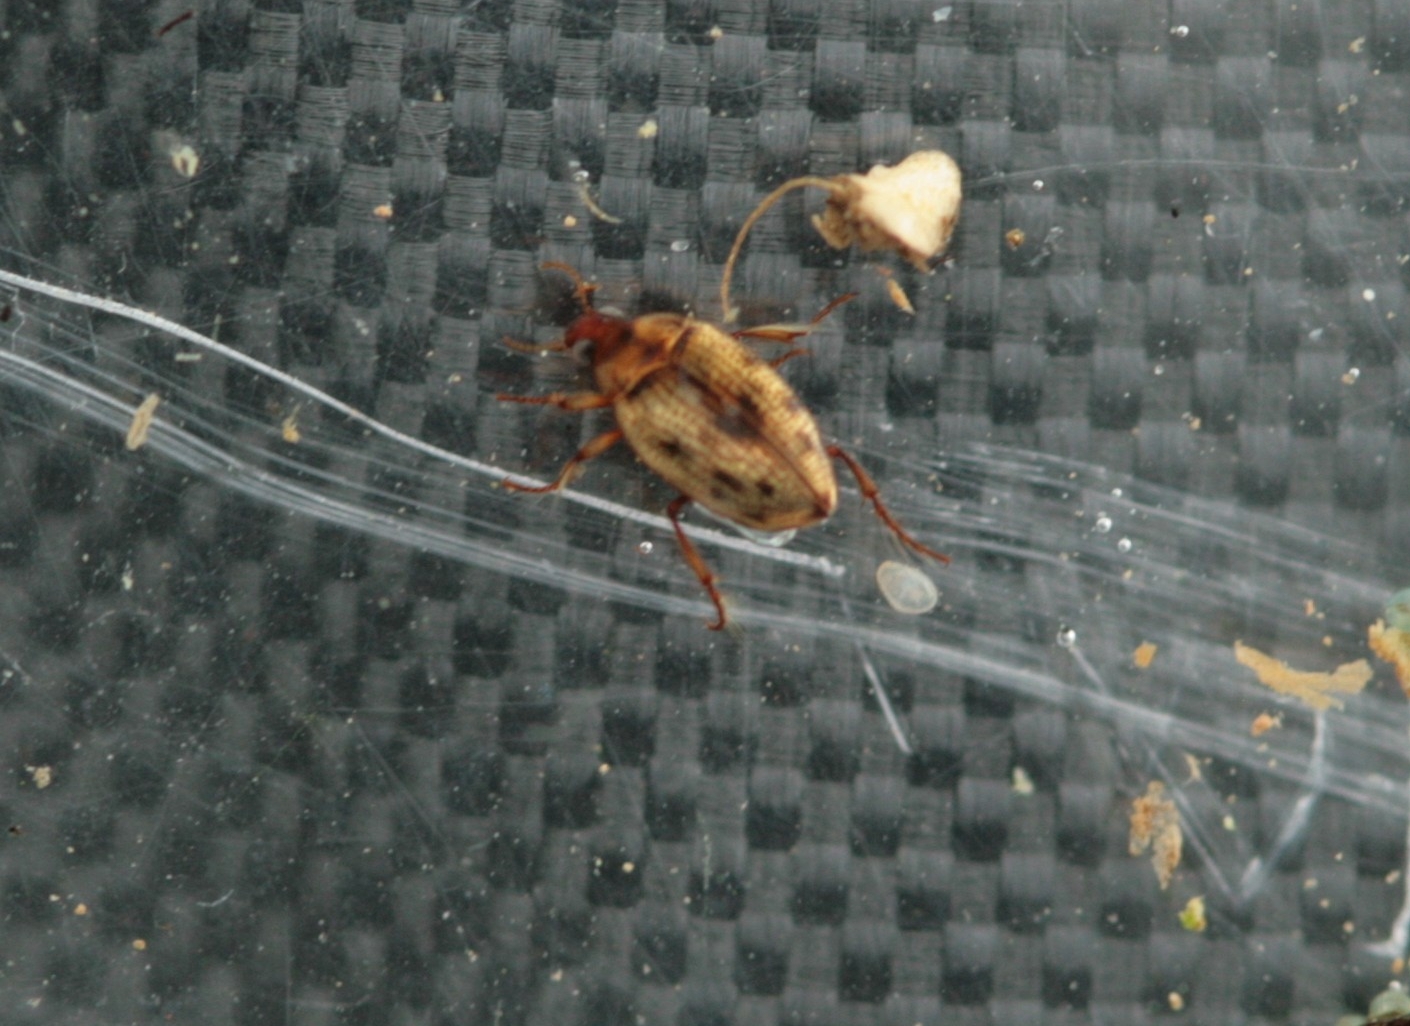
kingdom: Animalia
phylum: Arthropoda
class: Insecta
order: Coleoptera
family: Haliplidae
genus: Haliplus
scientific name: Haliplus lineatocollis
